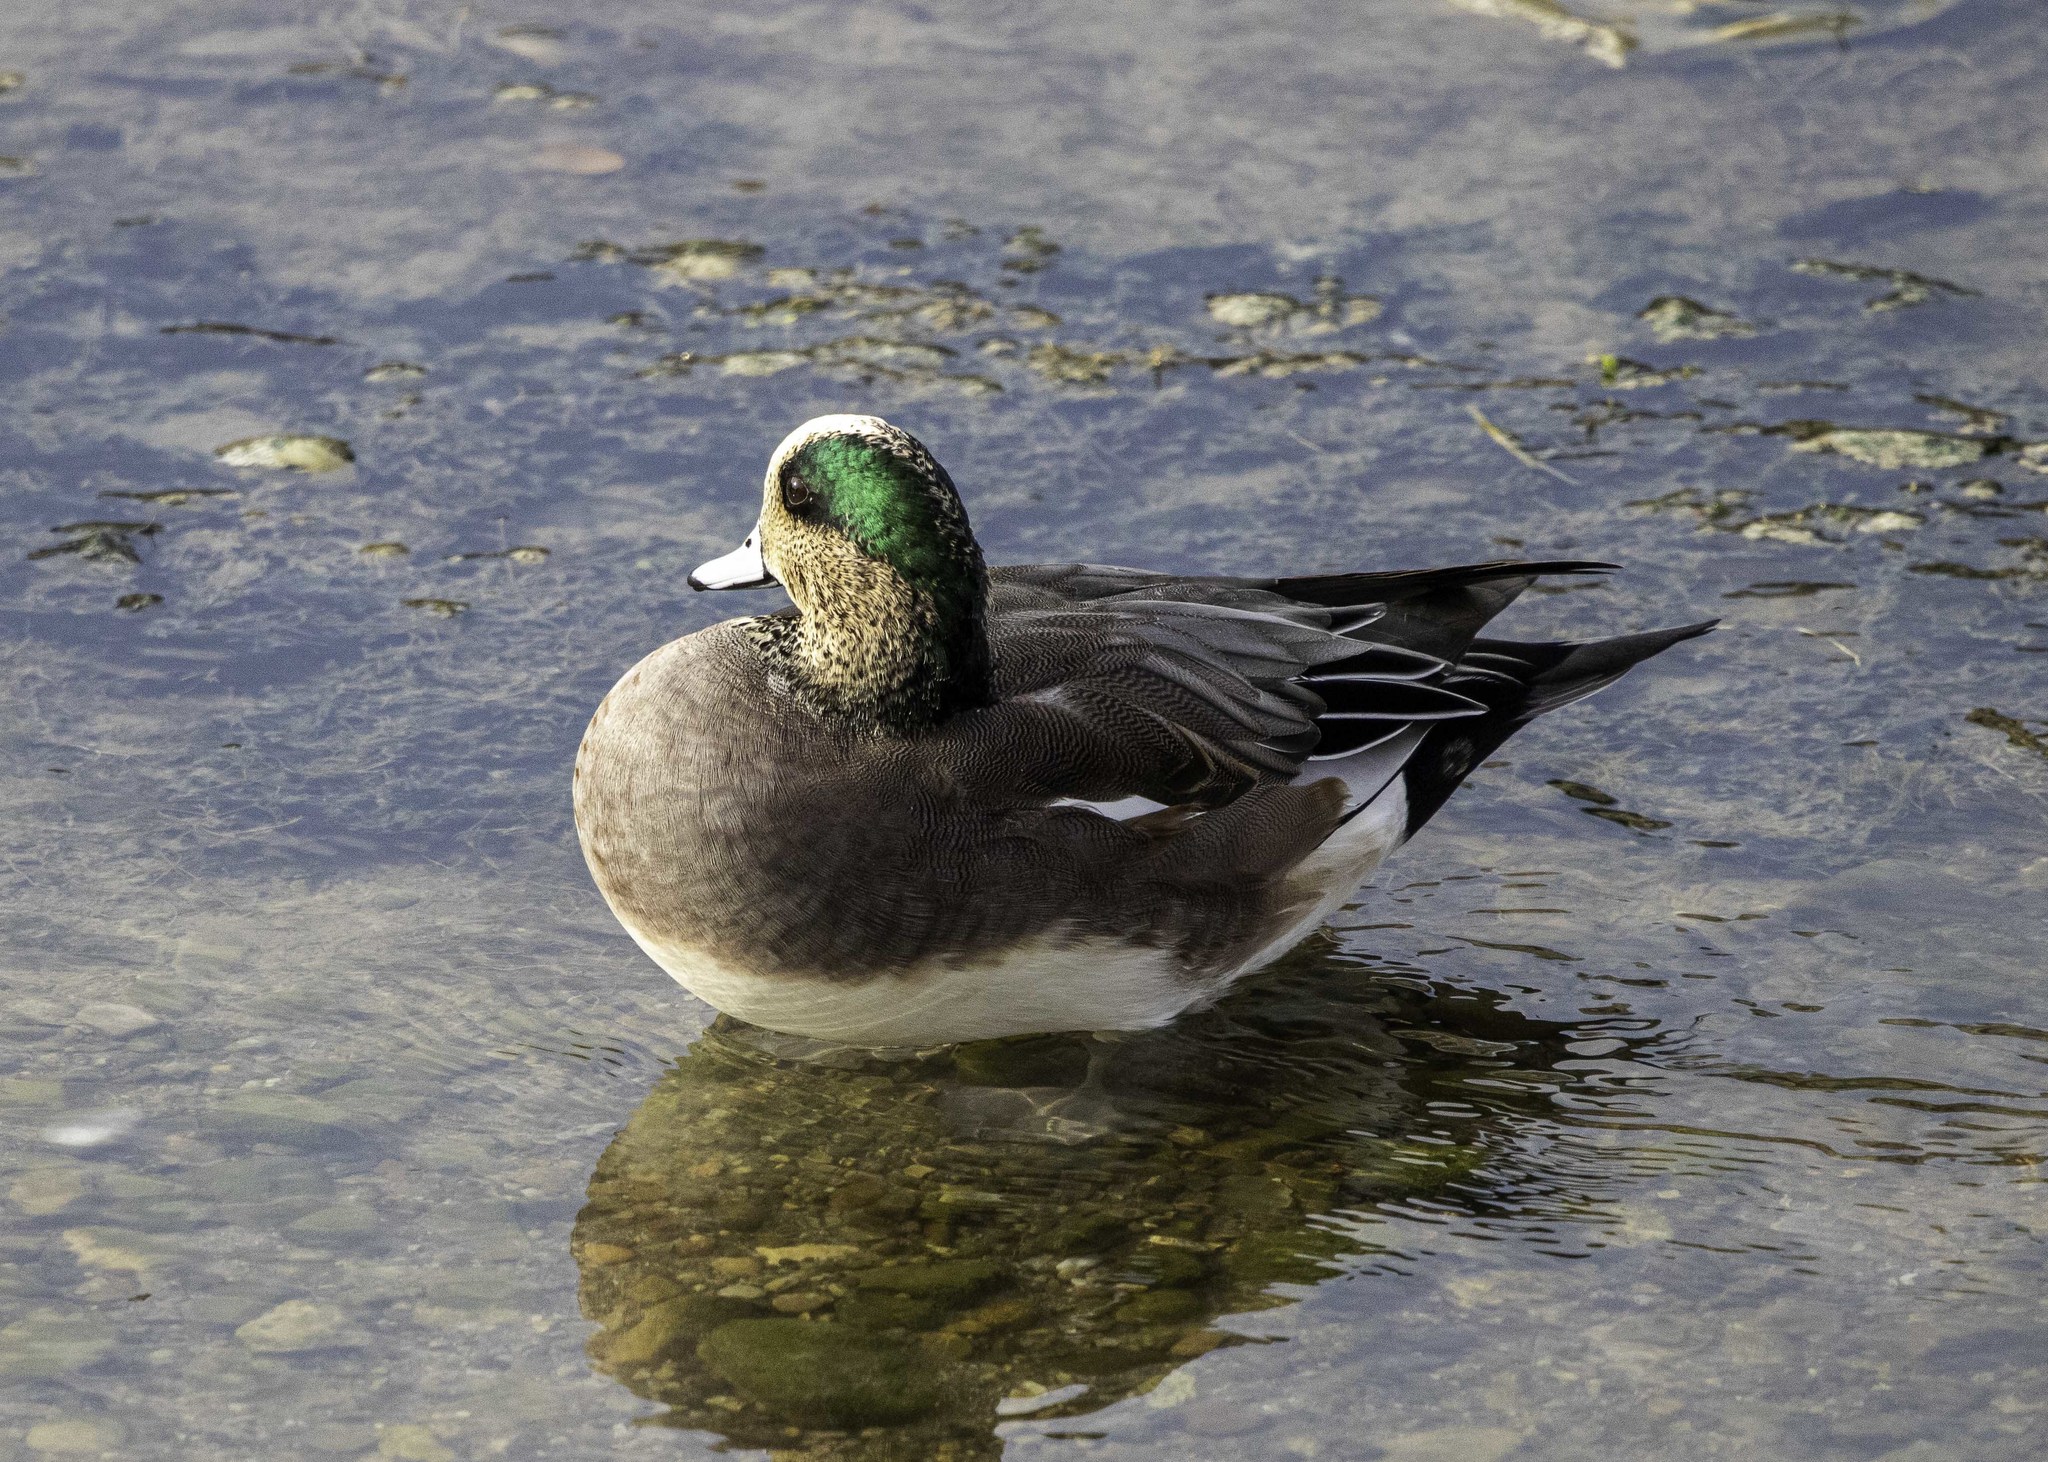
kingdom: Animalia
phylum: Chordata
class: Aves
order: Anseriformes
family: Anatidae
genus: Mareca
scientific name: Mareca americana
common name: American wigeon
